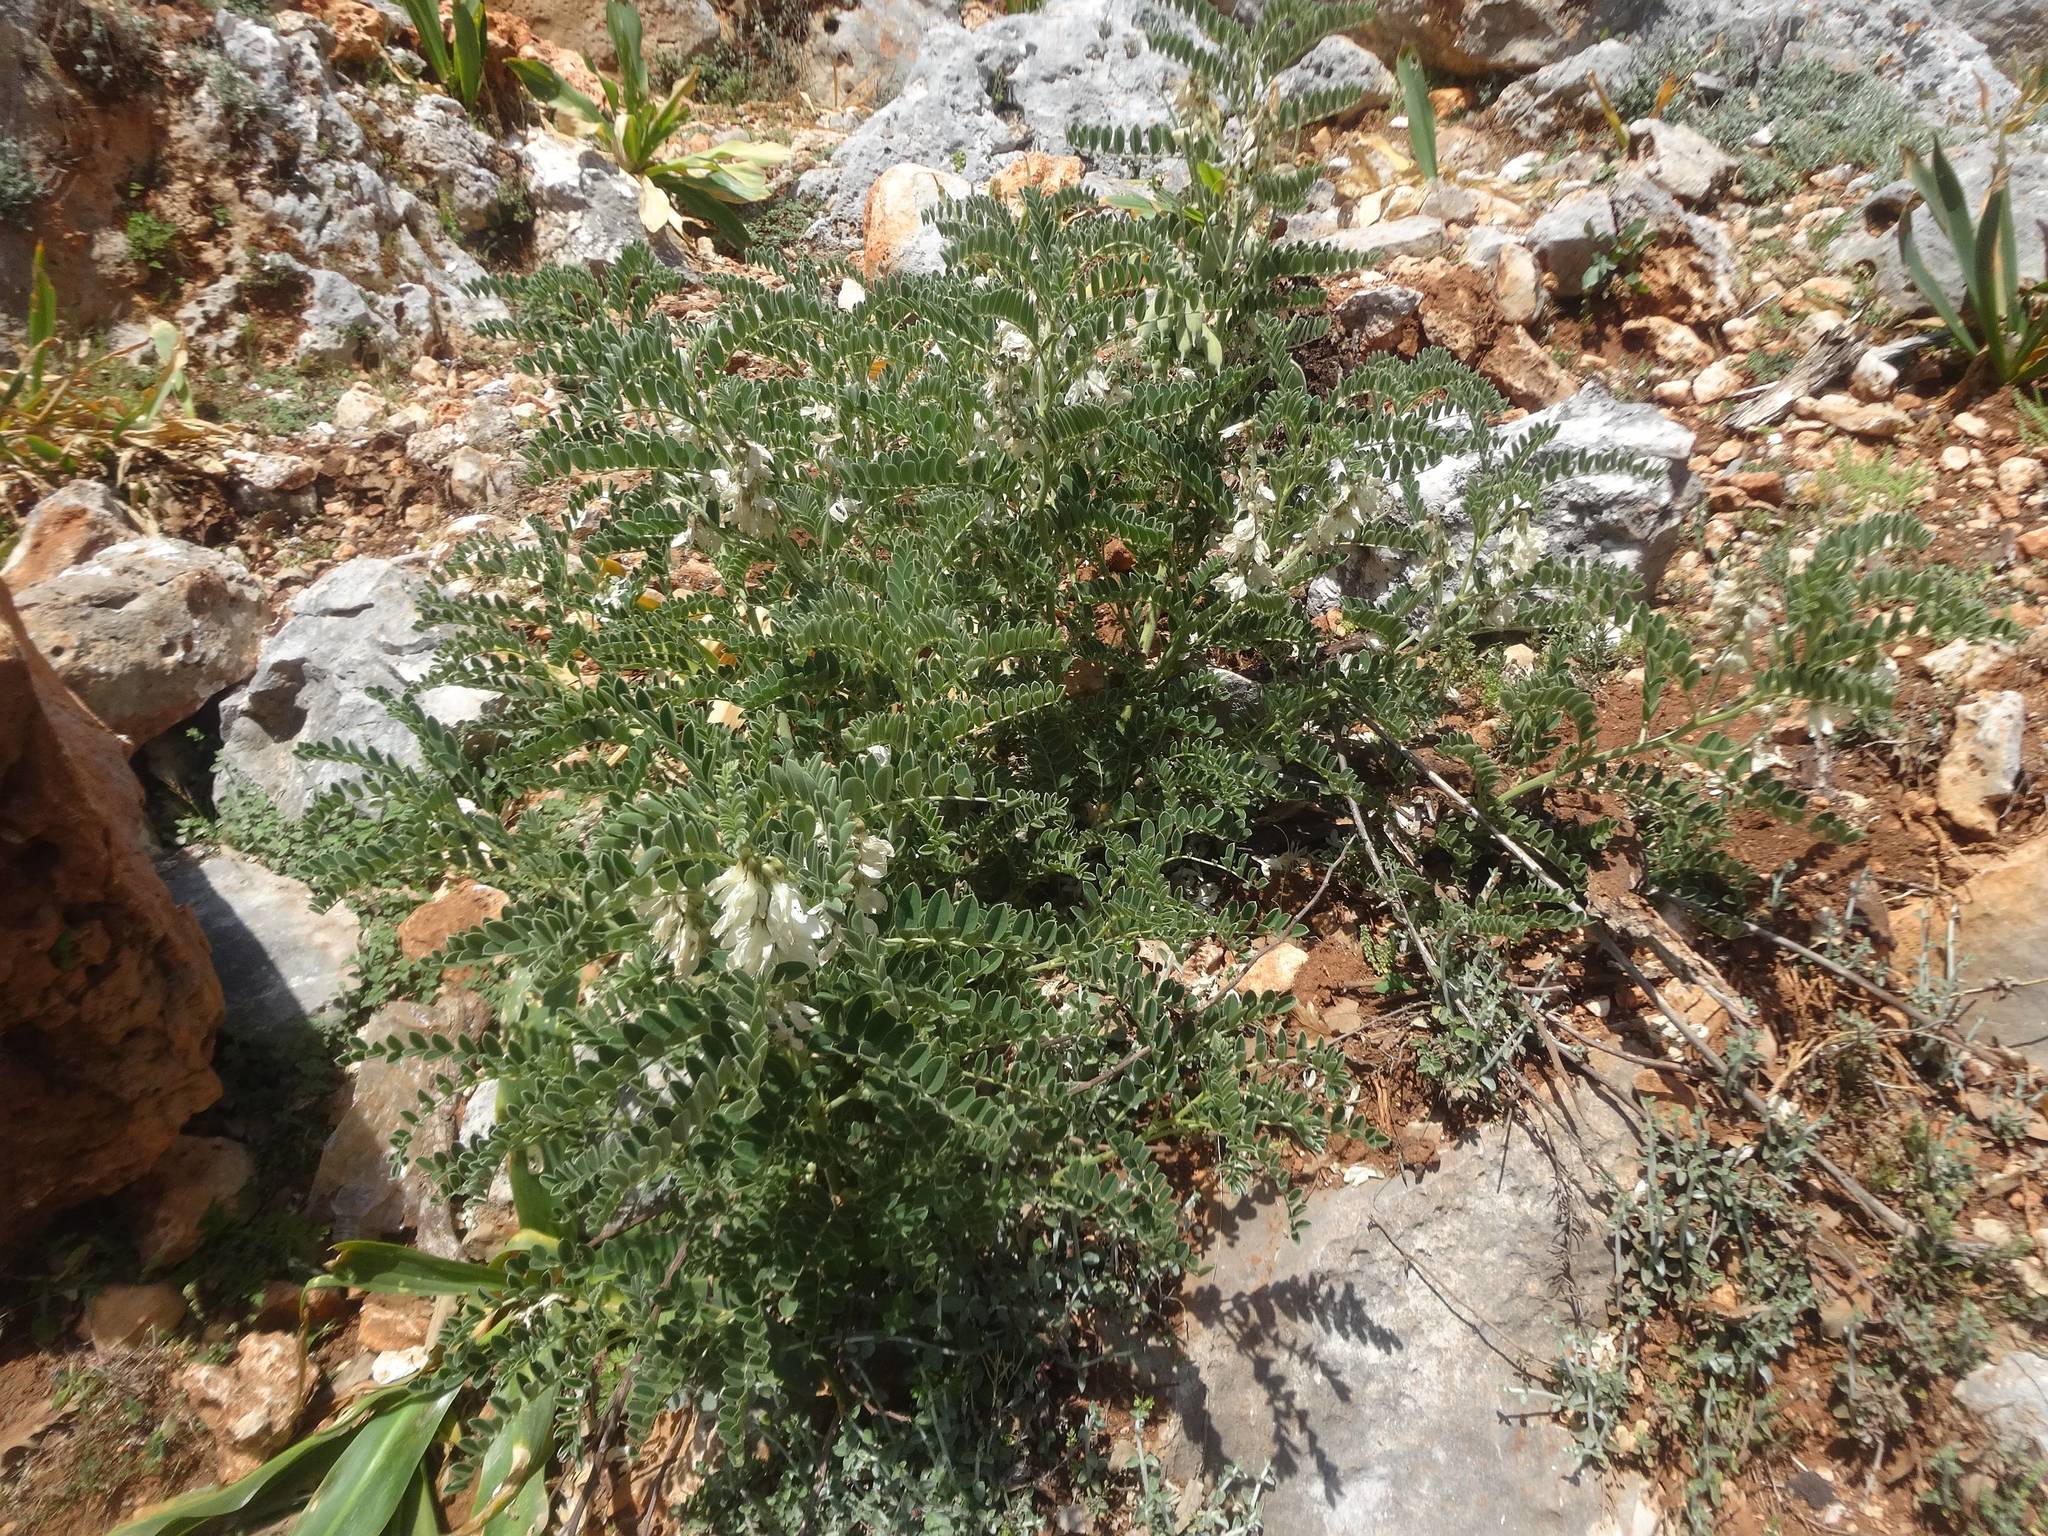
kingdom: Plantae
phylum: Tracheophyta
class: Magnoliopsida
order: Fabales
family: Fabaceae
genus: Erophaca
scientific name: Erophaca baetica
